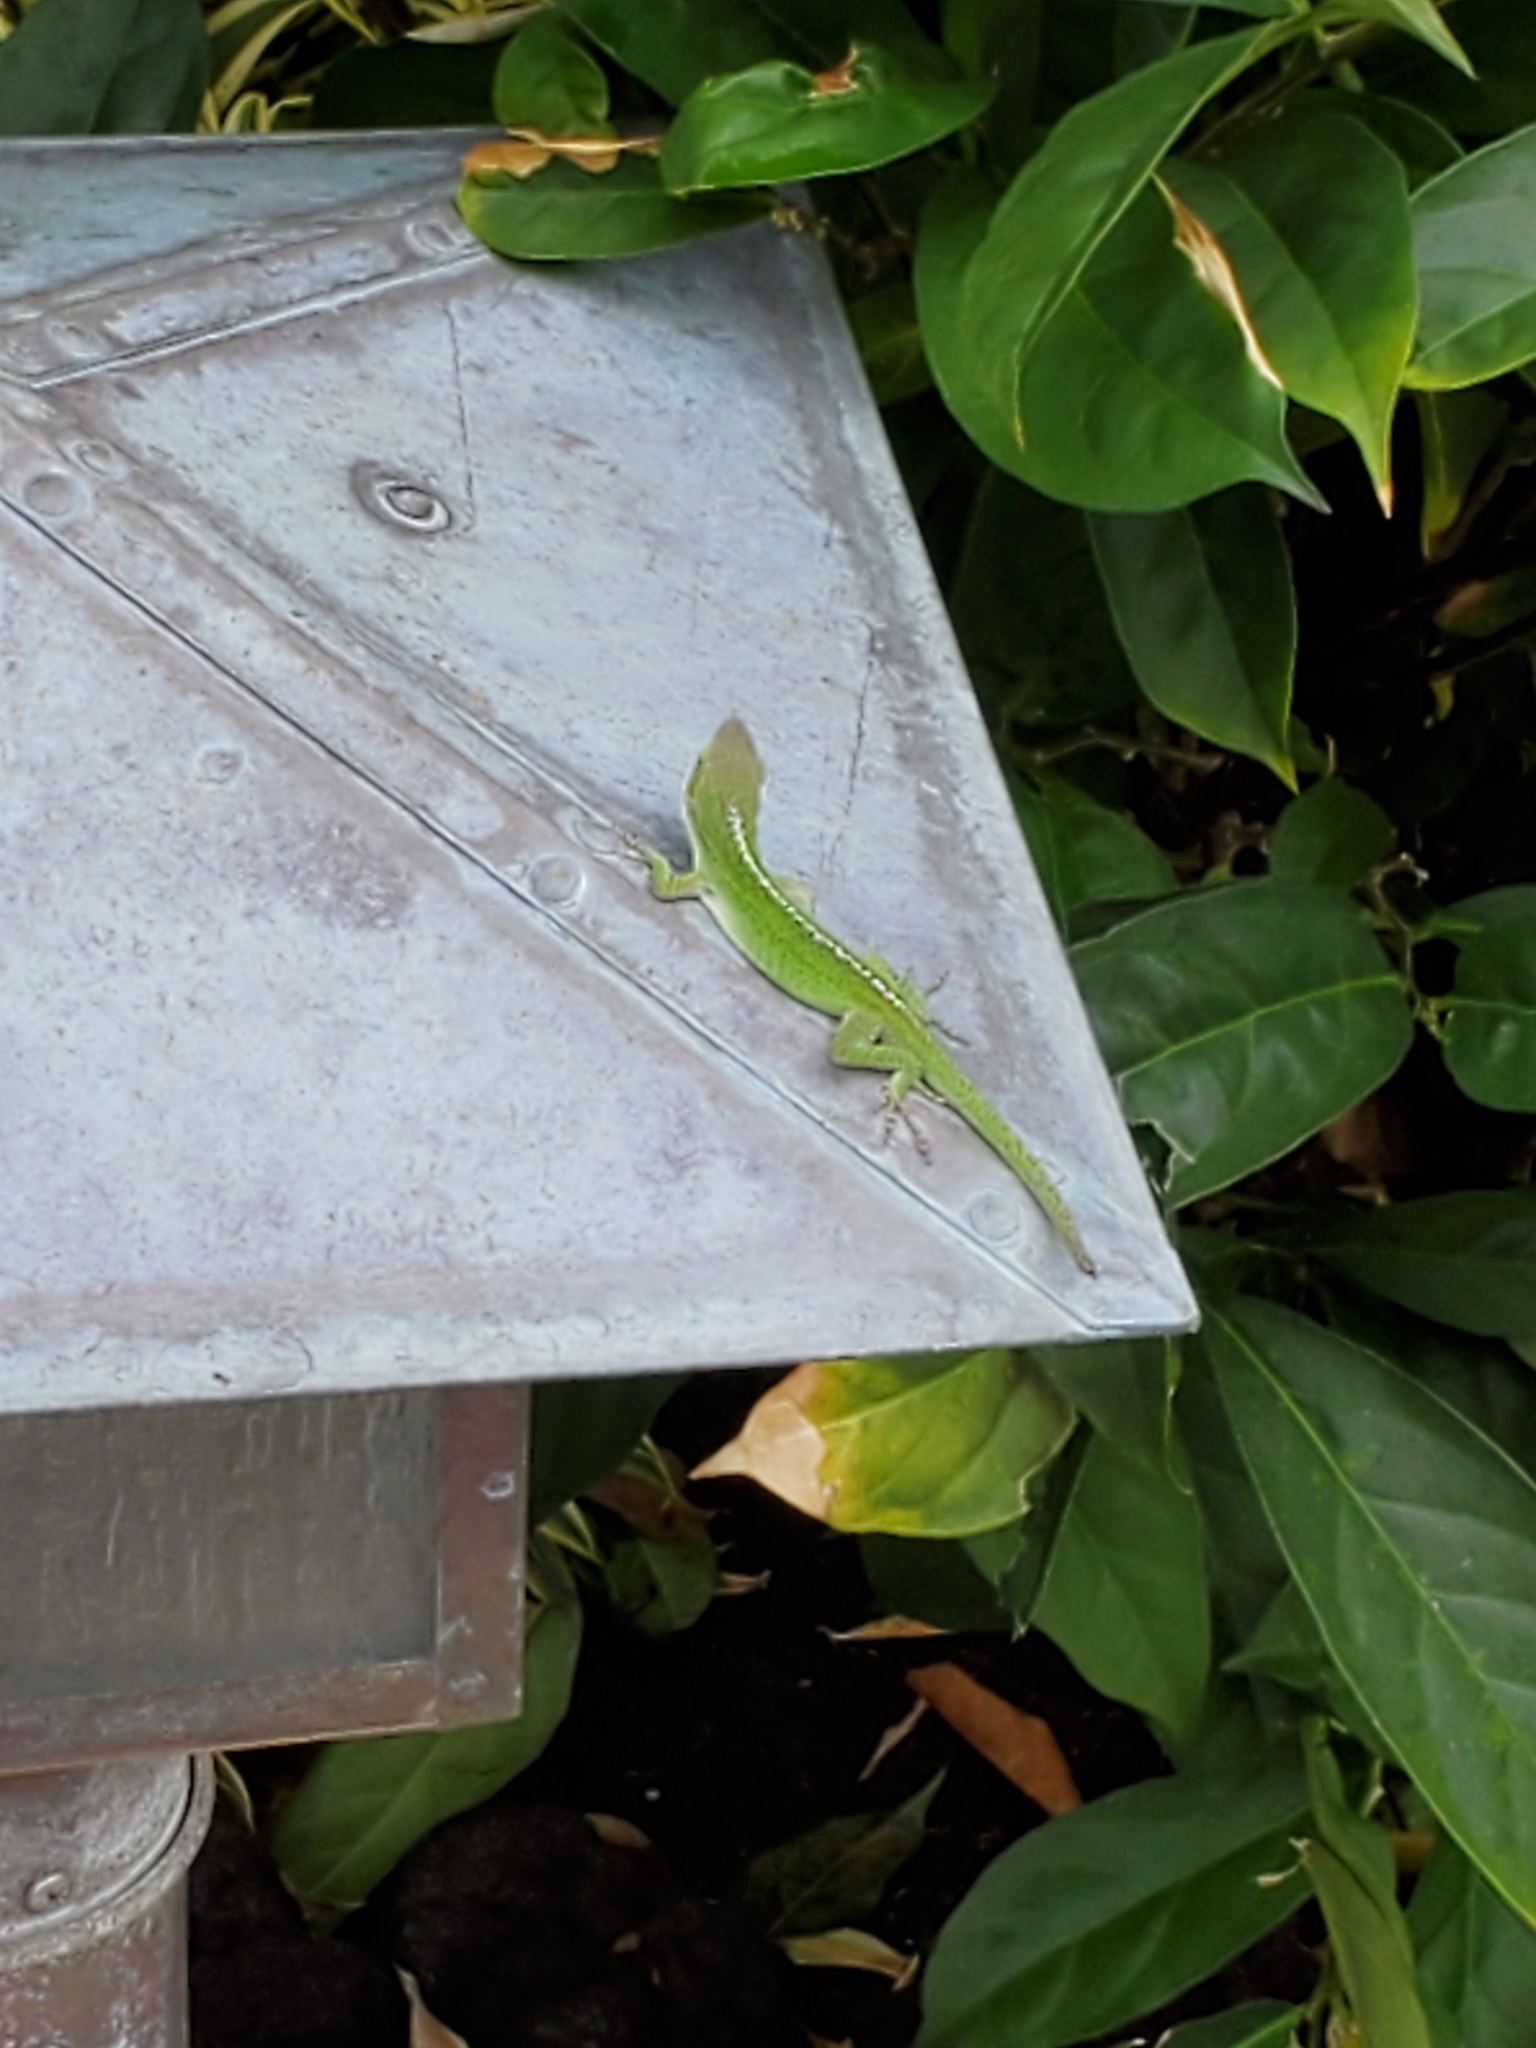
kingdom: Animalia
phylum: Chordata
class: Squamata
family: Dactyloidae
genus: Anolis
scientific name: Anolis carolinensis
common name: Green anole
